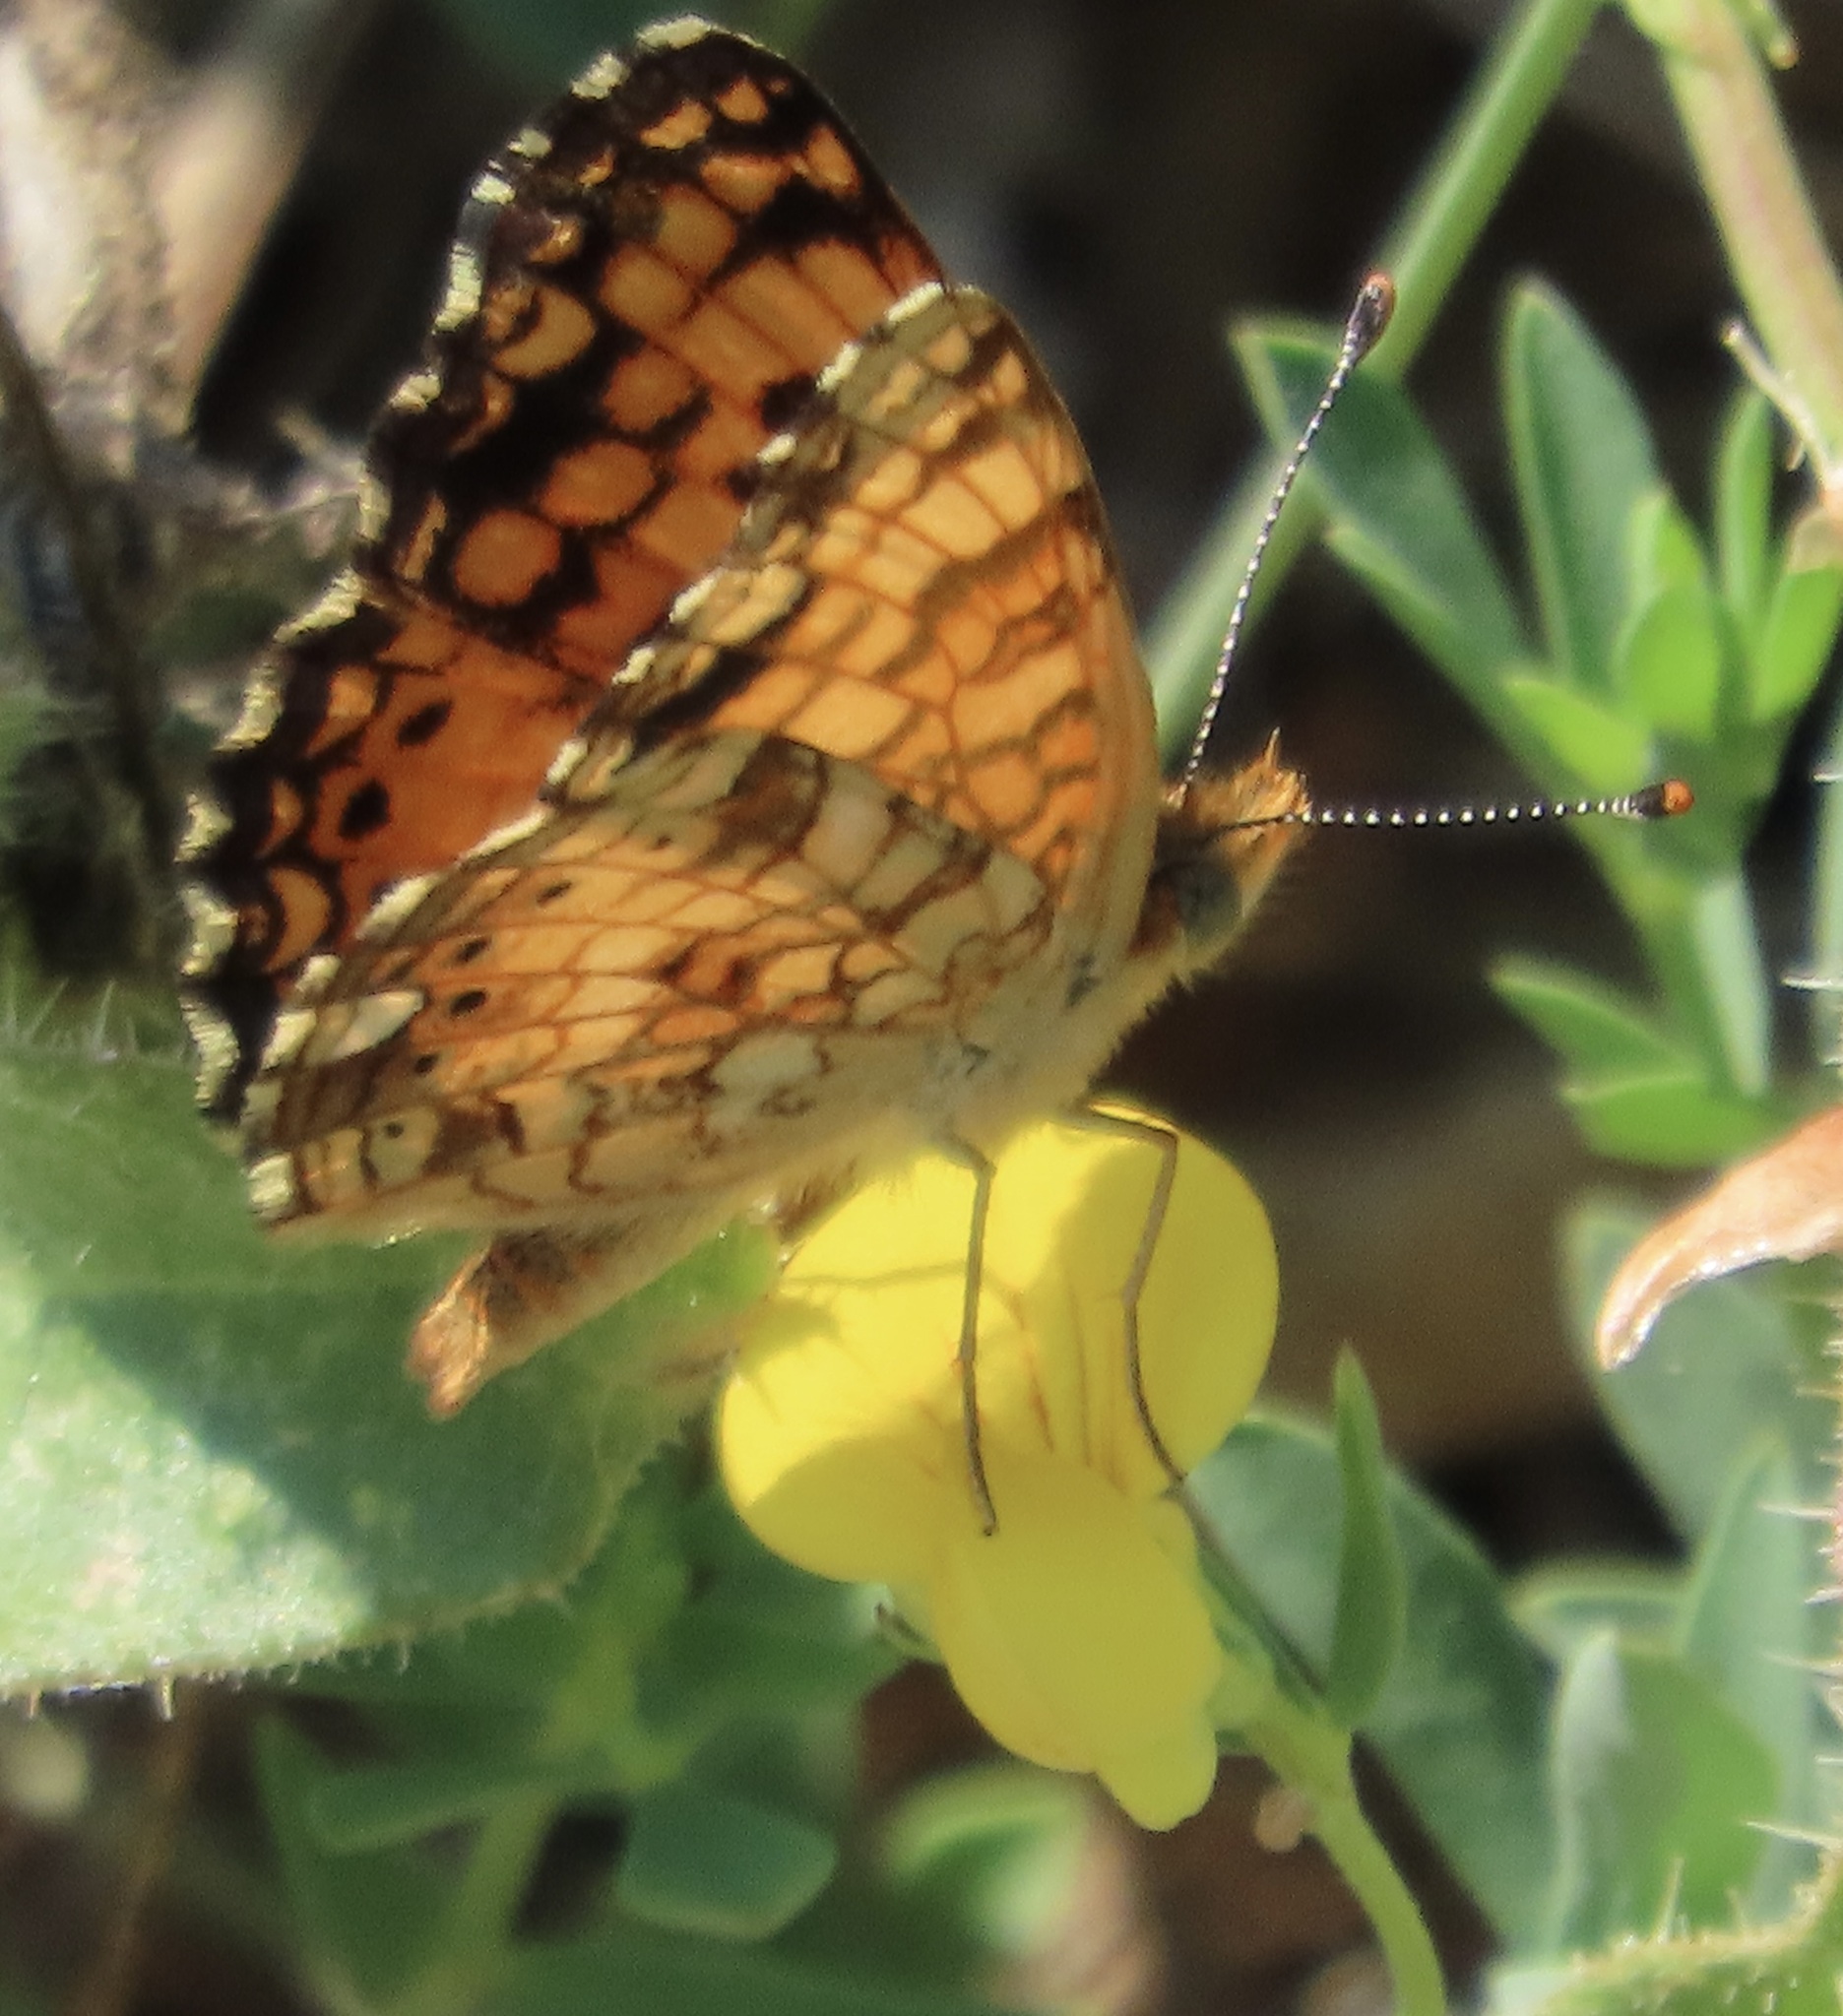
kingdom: Animalia
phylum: Arthropoda
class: Insecta
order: Lepidoptera
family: Nymphalidae
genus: Eresia
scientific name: Eresia aveyrona
